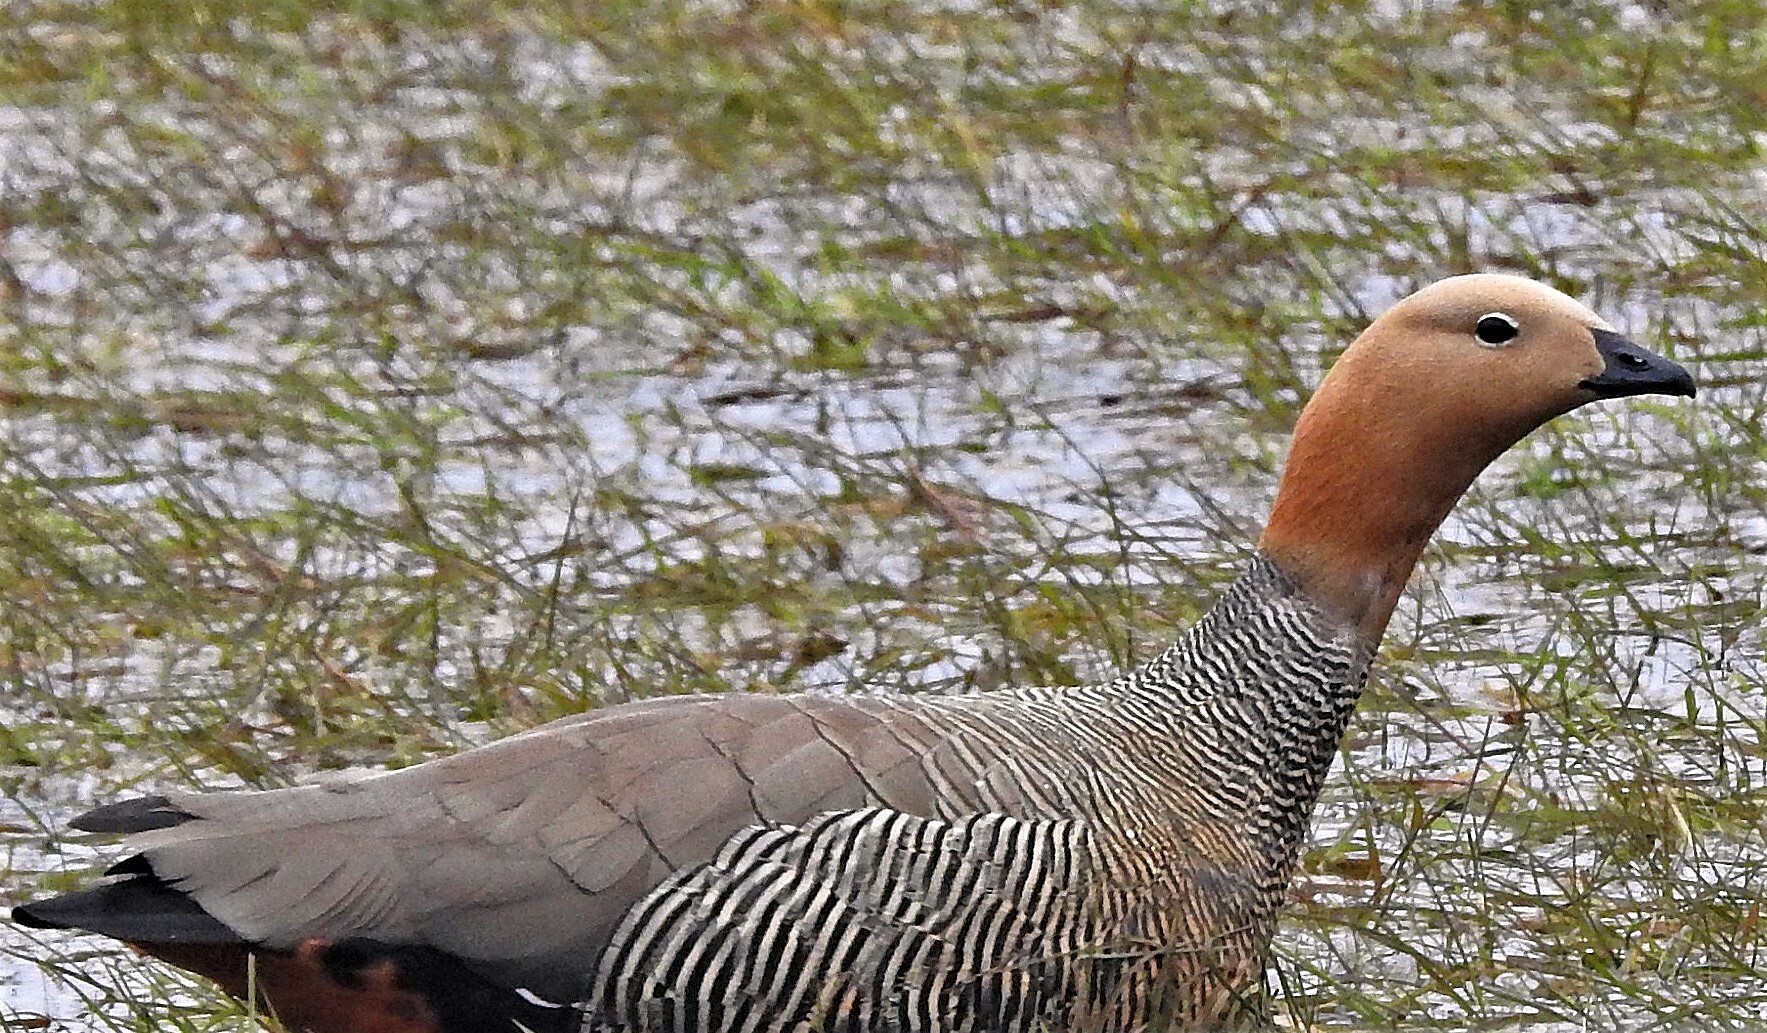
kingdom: Animalia
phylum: Chordata
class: Aves
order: Anseriformes
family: Anatidae
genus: Chloephaga
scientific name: Chloephaga rubidiceps
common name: Ruddy-headed goose
